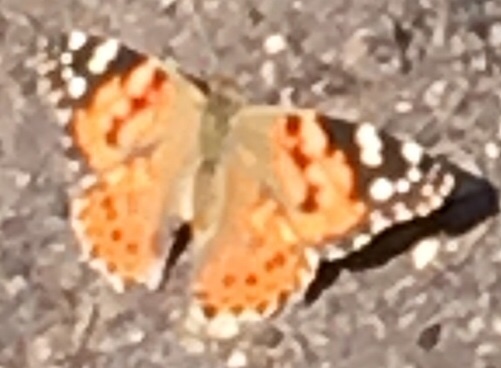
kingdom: Animalia
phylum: Arthropoda
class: Insecta
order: Lepidoptera
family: Nymphalidae
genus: Vanessa
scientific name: Vanessa cardui
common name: Painted lady
